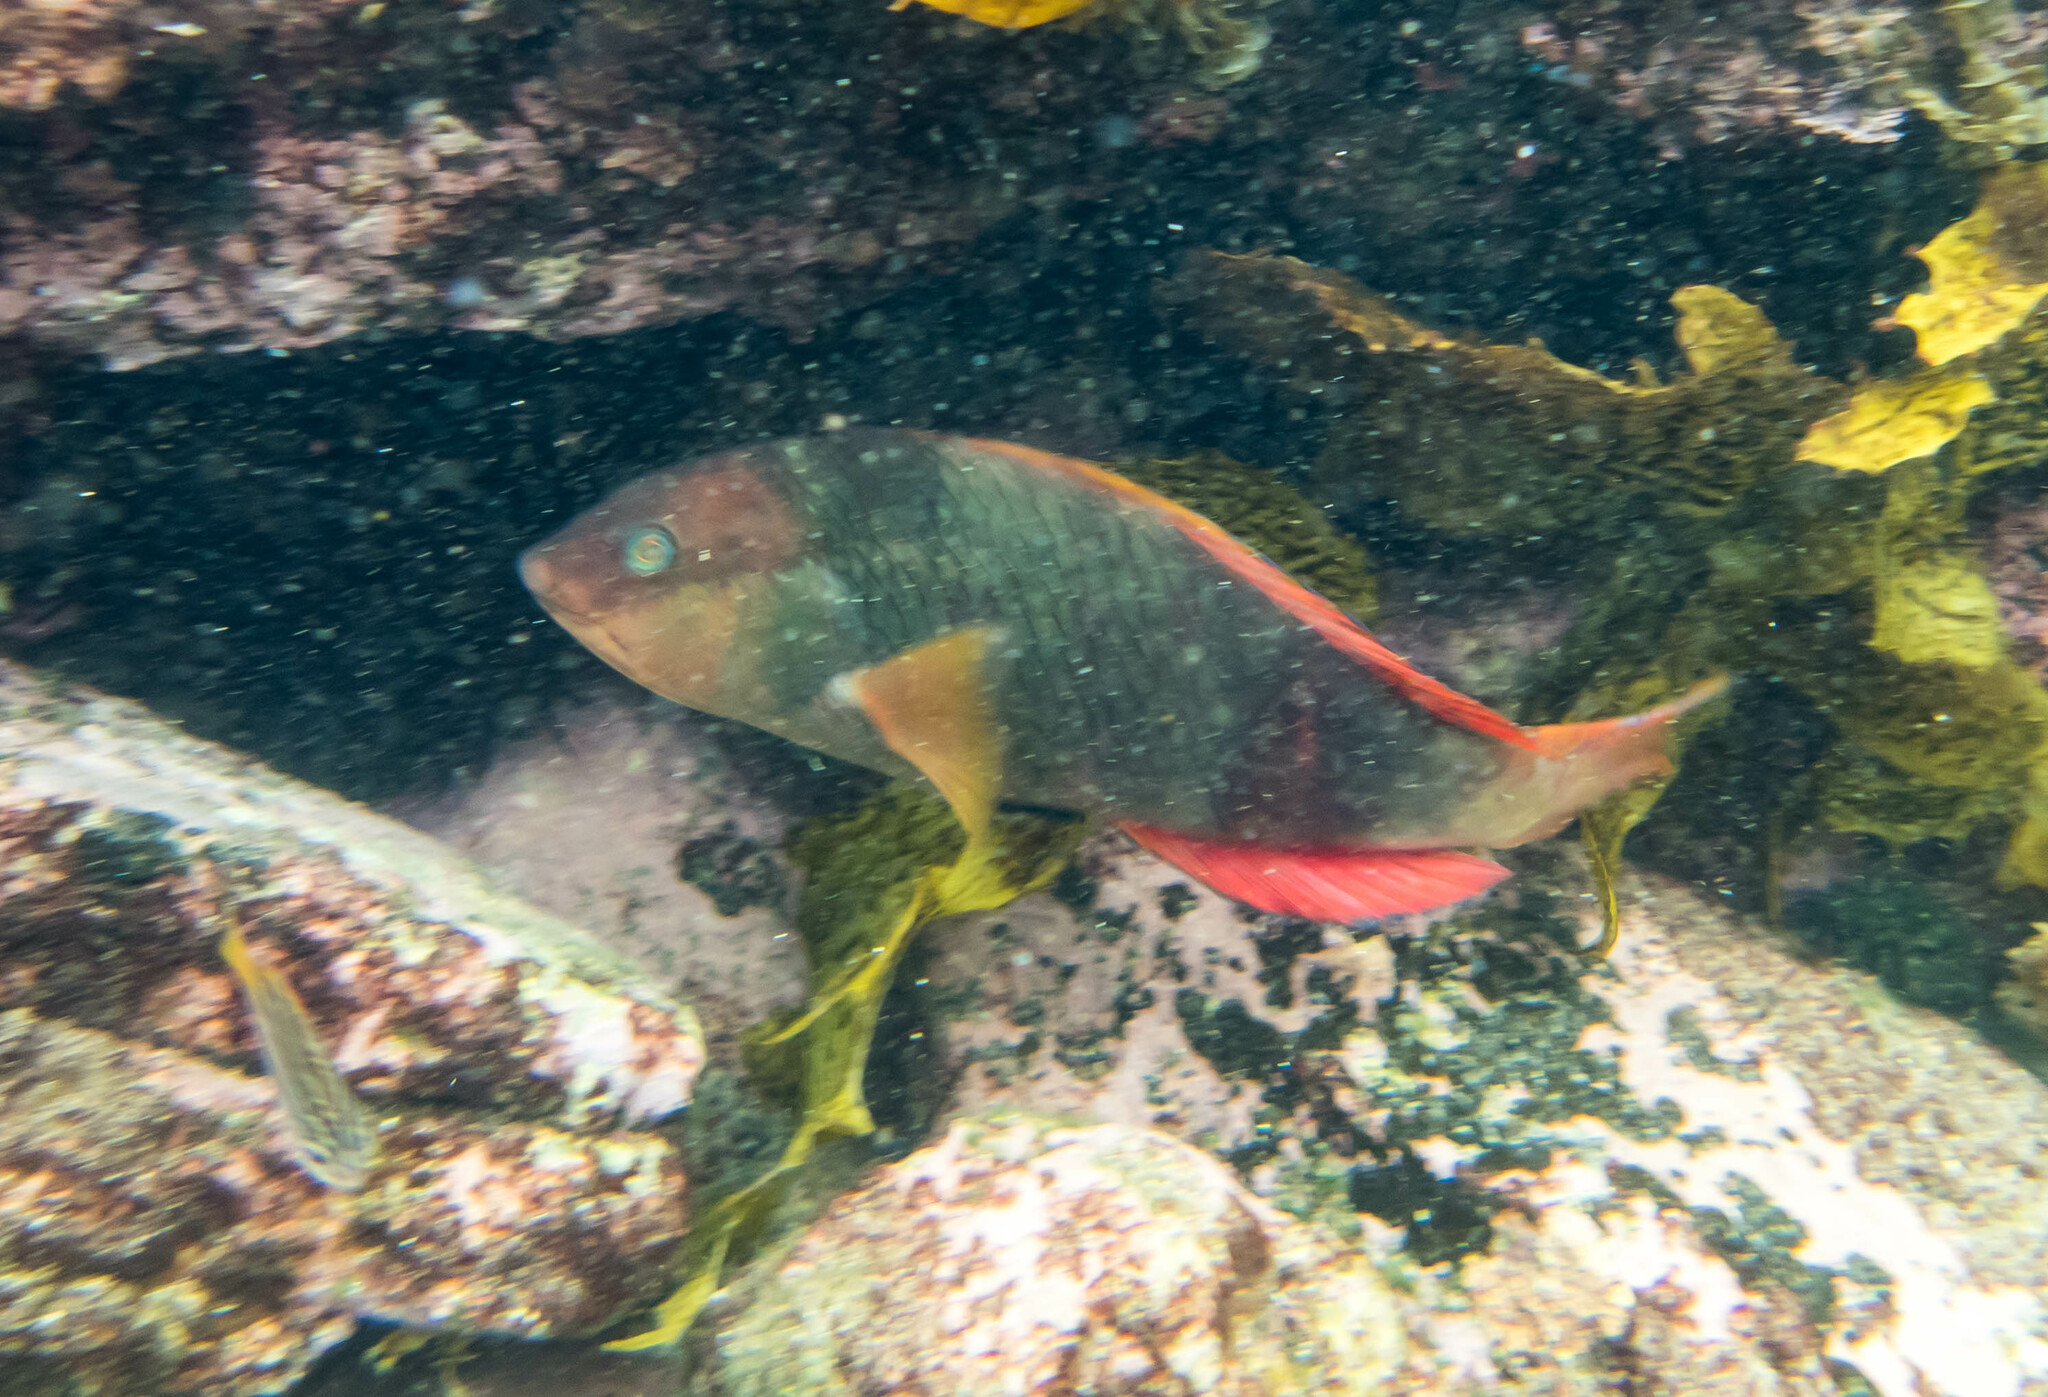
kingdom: Animalia
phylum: Chordata
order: Perciformes
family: Labridae
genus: Notolabrus
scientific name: Notolabrus gymnogenis
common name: Crimson banded wrasse
